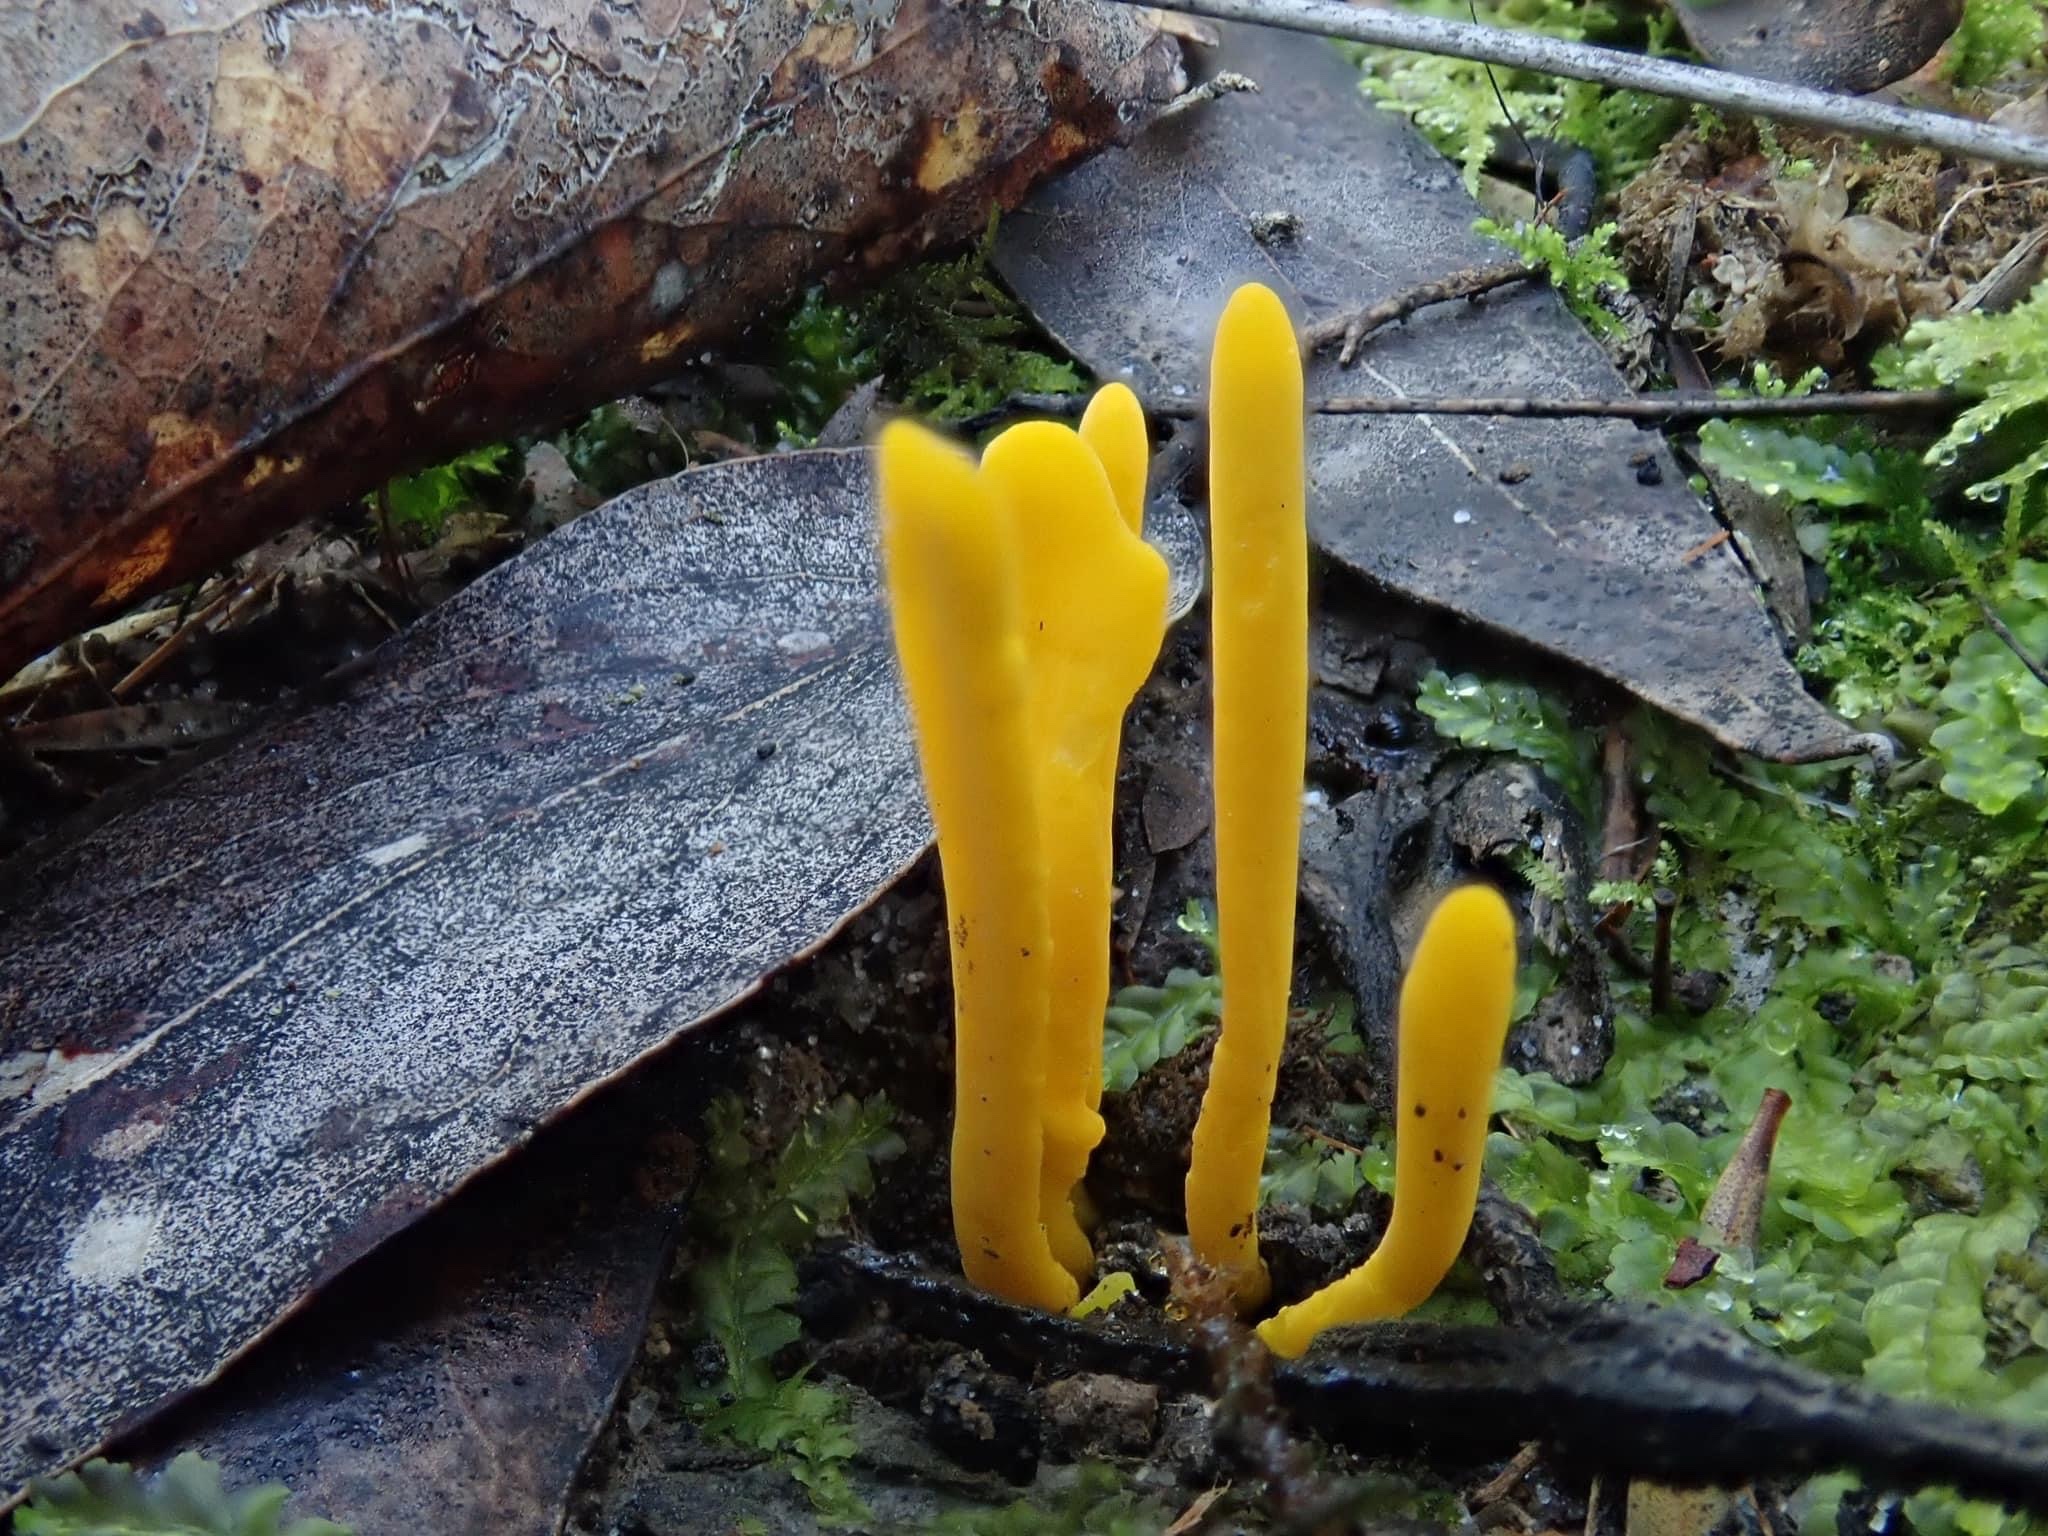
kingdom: Fungi
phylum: Basidiomycota
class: Agaricomycetes
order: Agaricales
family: Clavariaceae
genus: Clavulinopsis
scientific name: Clavulinopsis amoena
